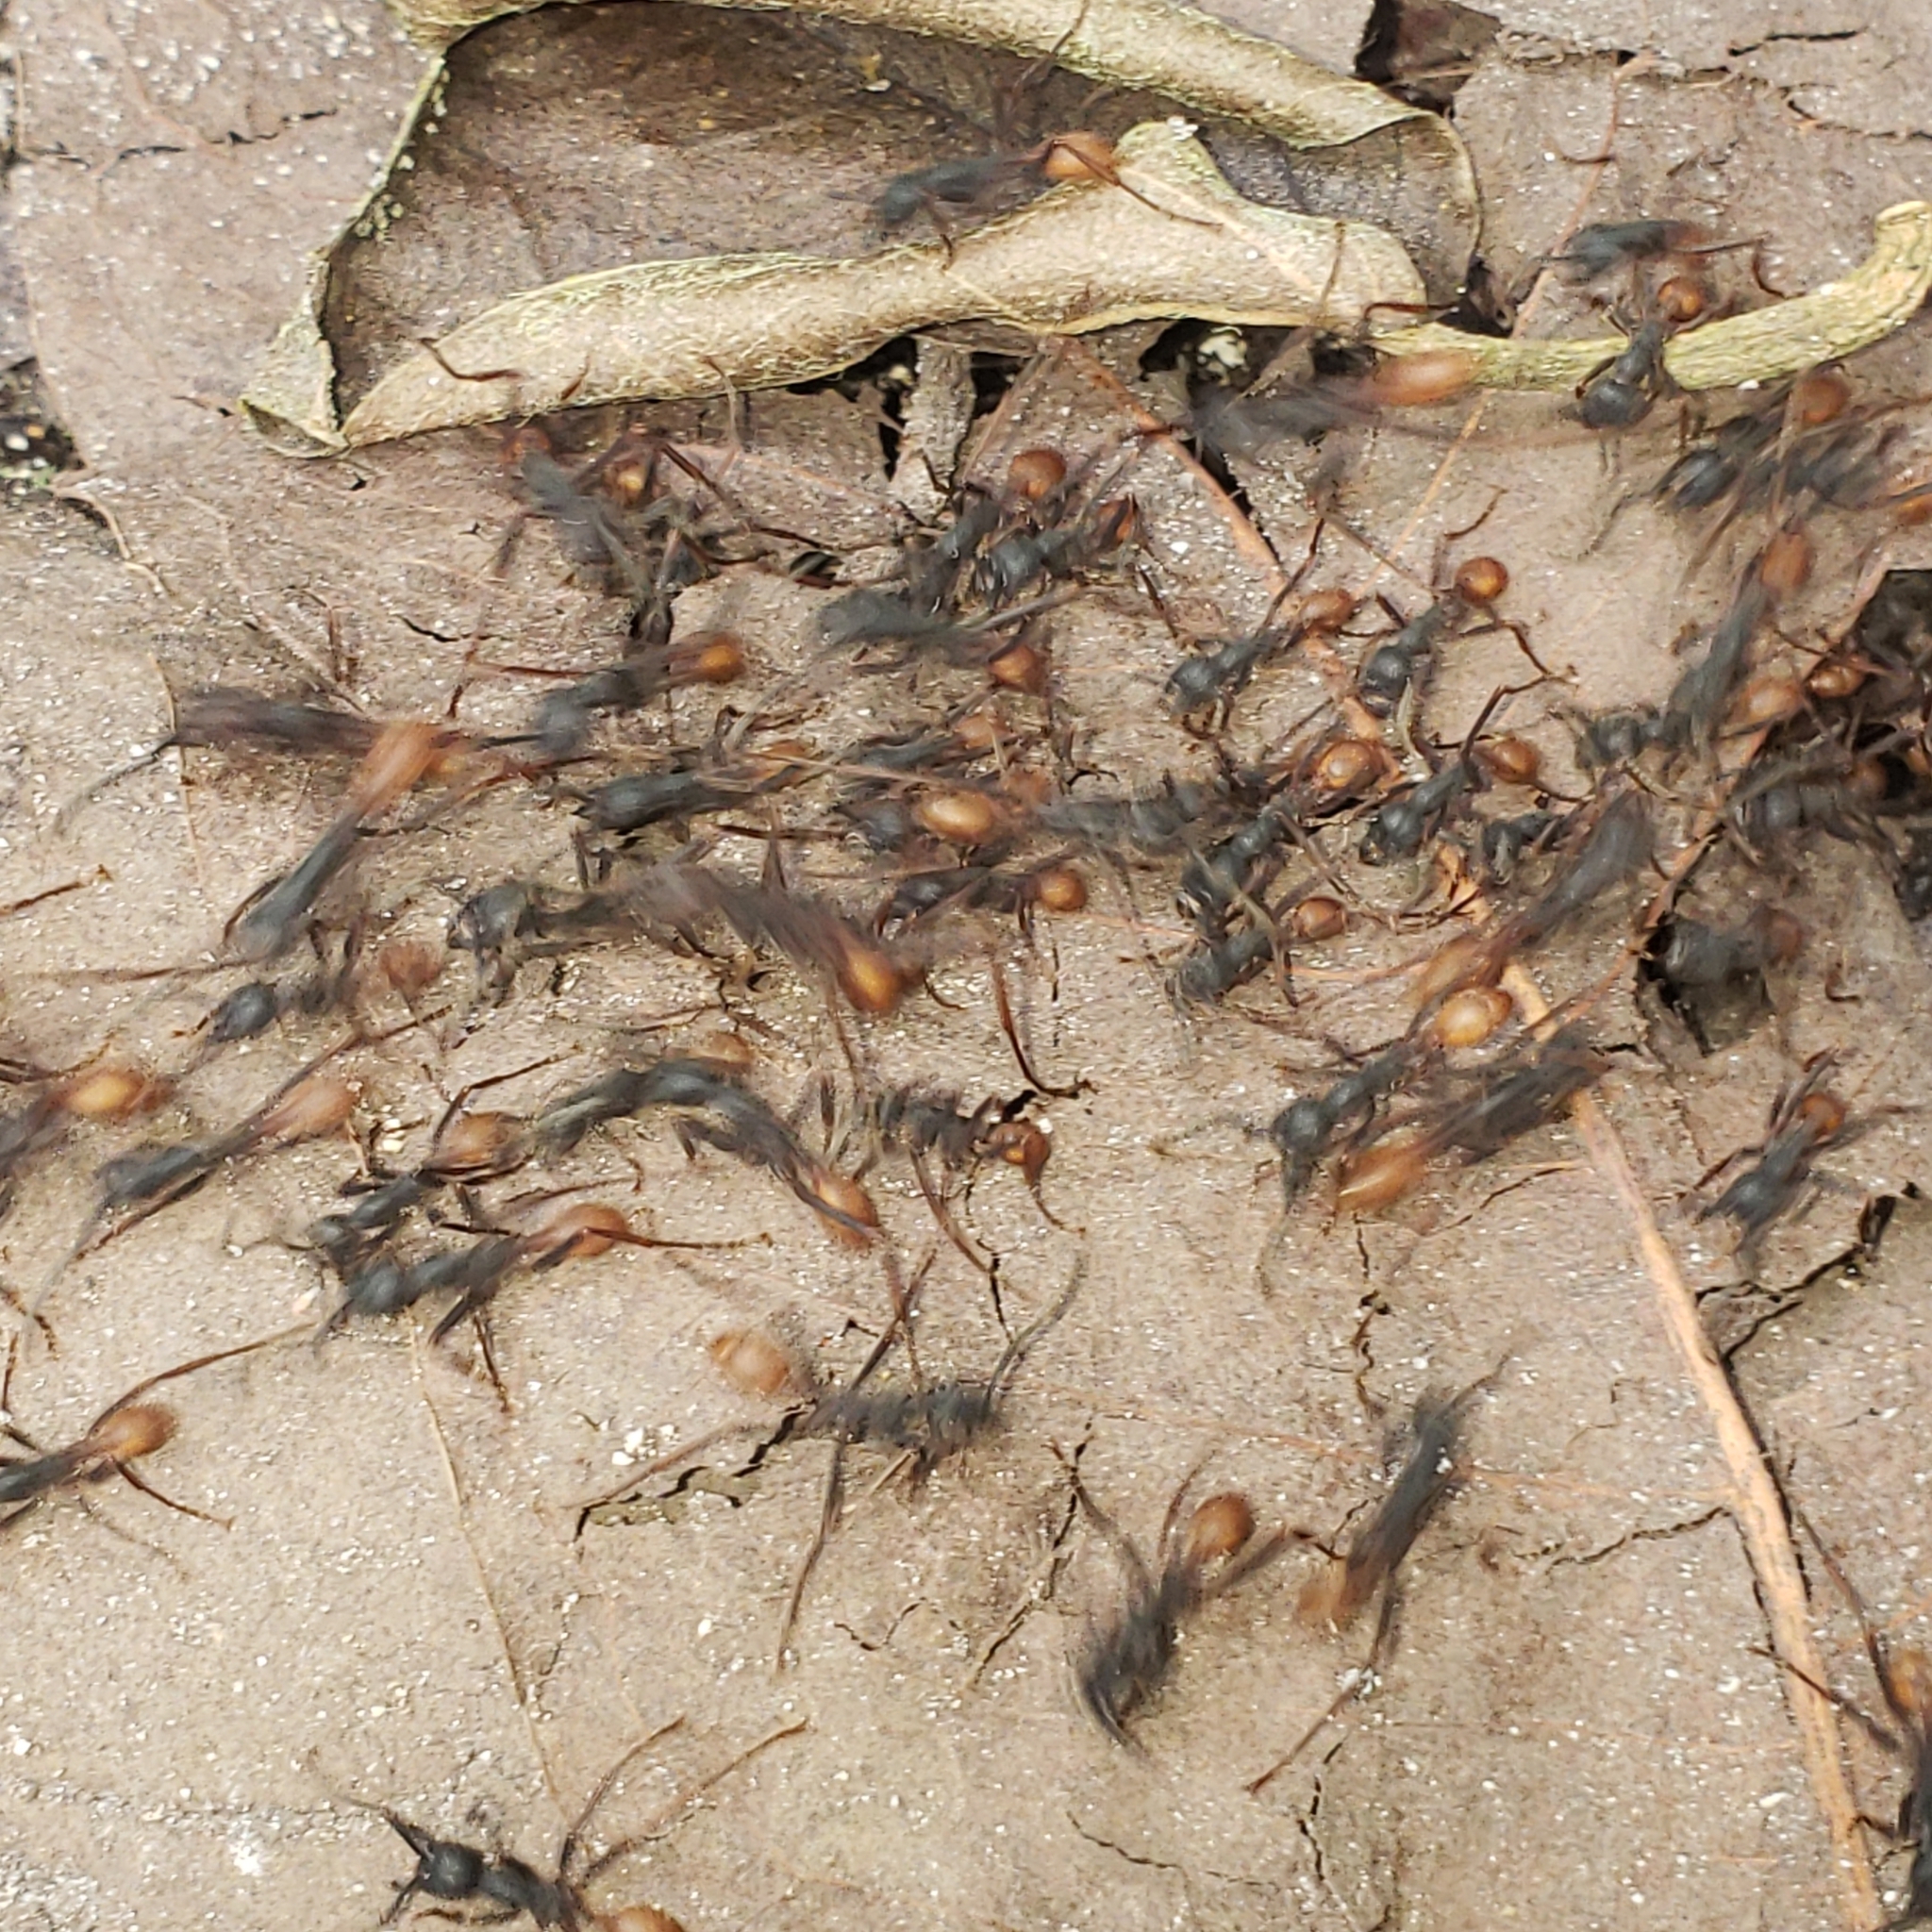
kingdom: Animalia
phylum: Arthropoda
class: Insecta
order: Hymenoptera
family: Formicidae
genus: Eciton
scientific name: Eciton burchellii
